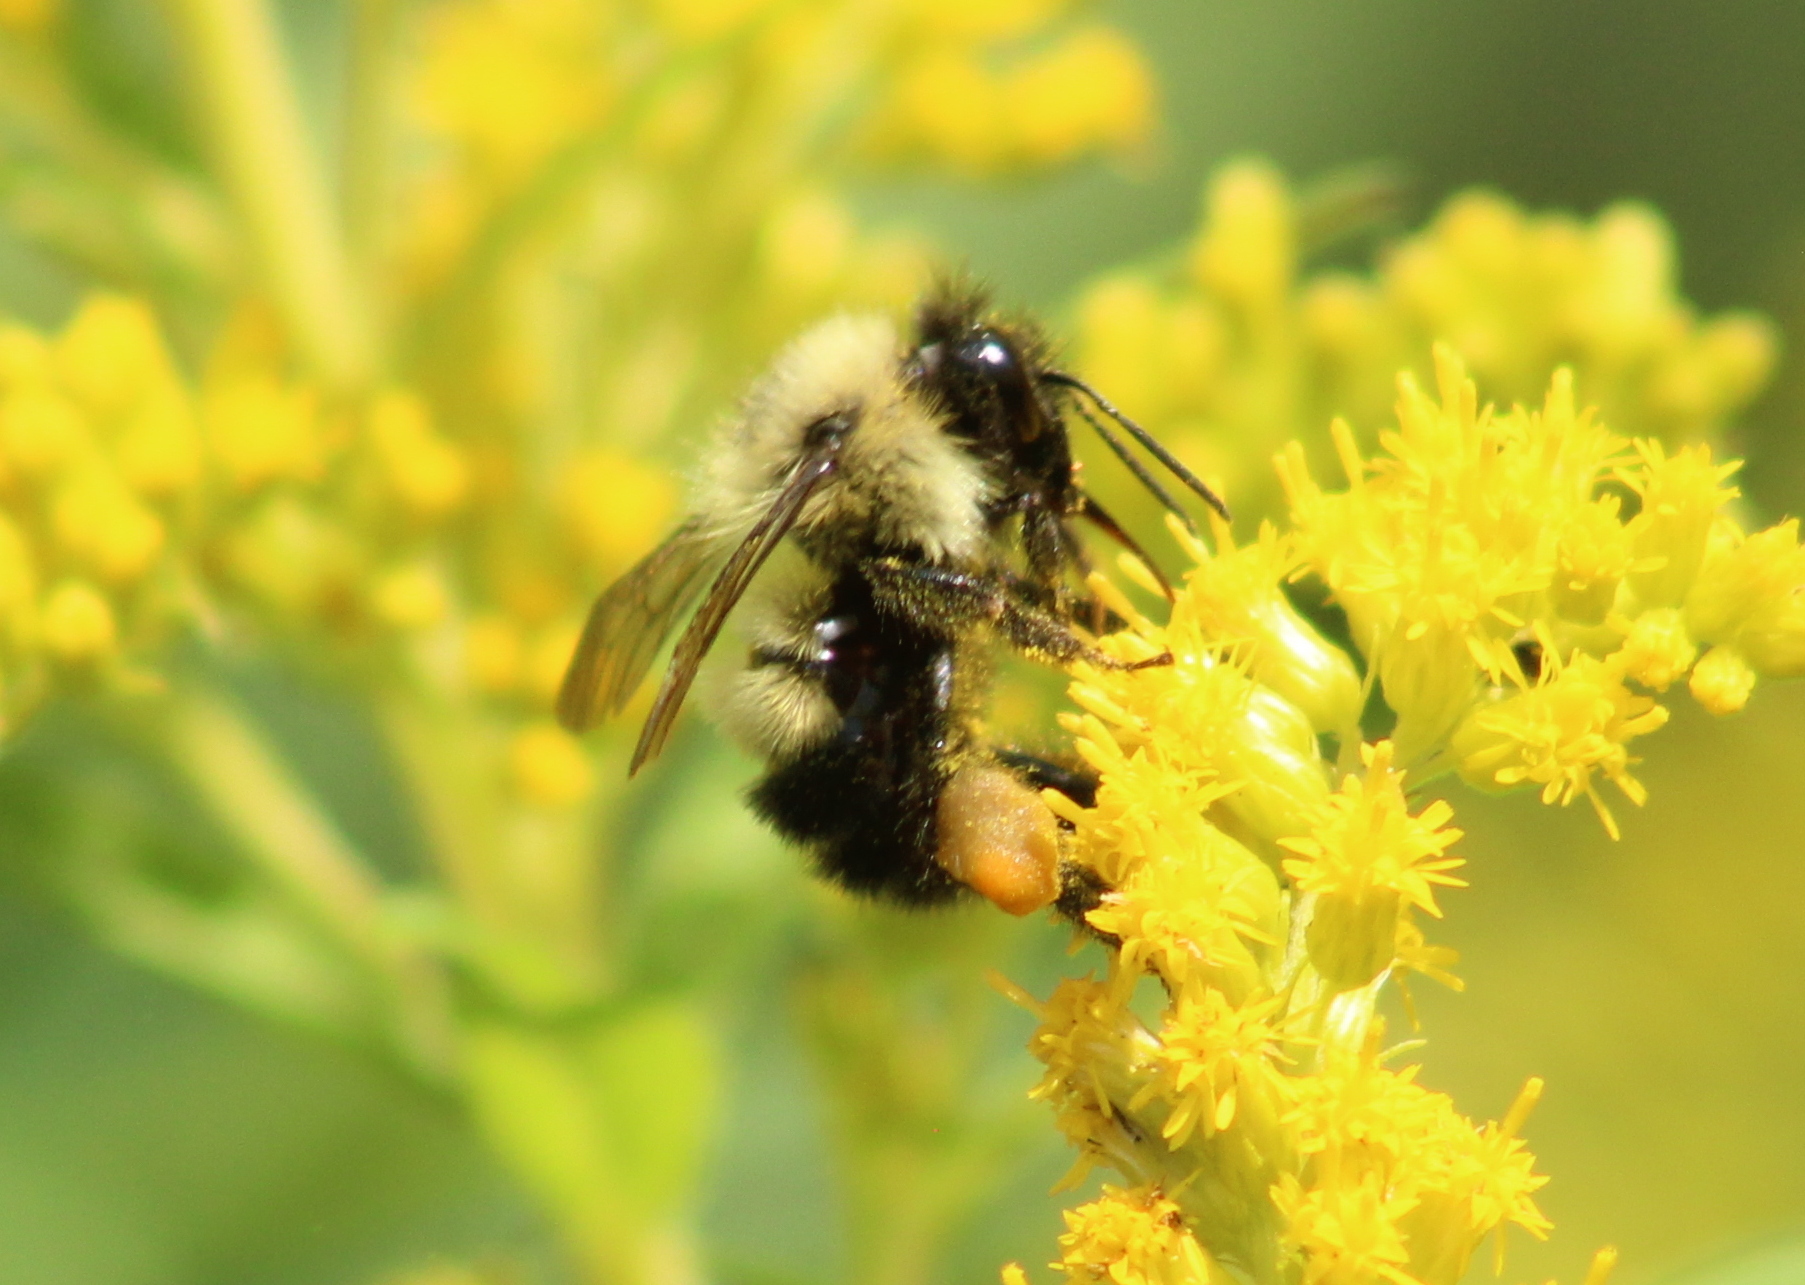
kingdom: Animalia
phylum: Arthropoda
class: Insecta
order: Hymenoptera
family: Apidae
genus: Bombus
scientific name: Bombus vagans
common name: Half-black bumble bee
